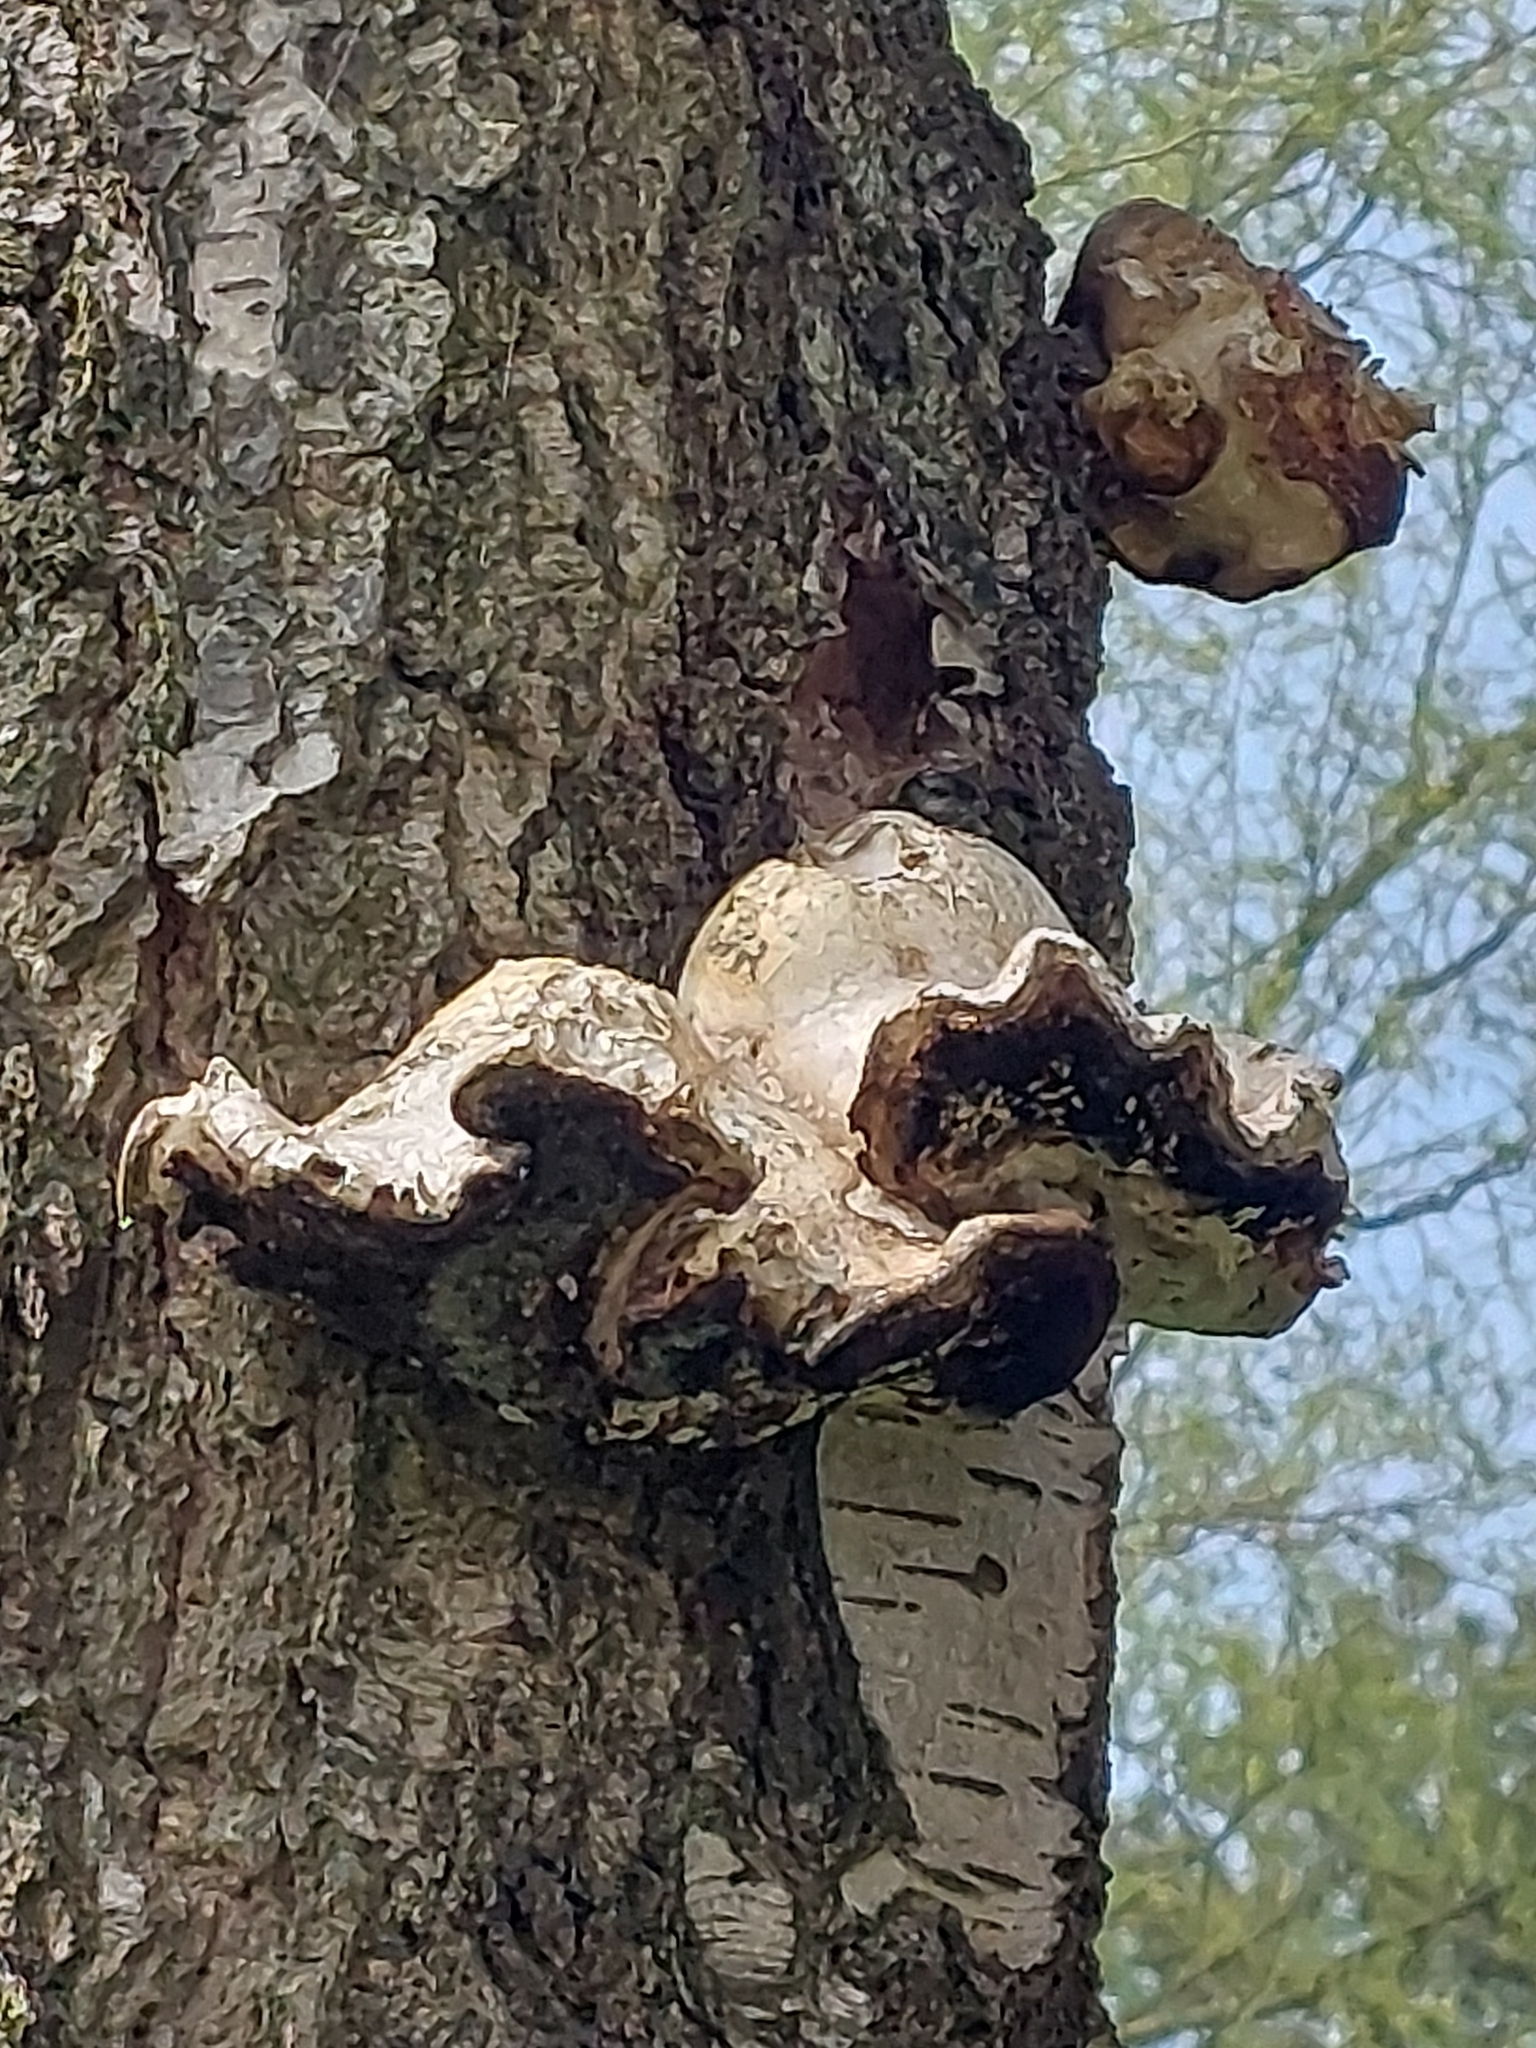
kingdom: Fungi
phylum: Basidiomycota
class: Agaricomycetes
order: Polyporales
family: Fomitopsidaceae
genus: Fomitopsis
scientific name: Fomitopsis betulina
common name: Birch polypore
